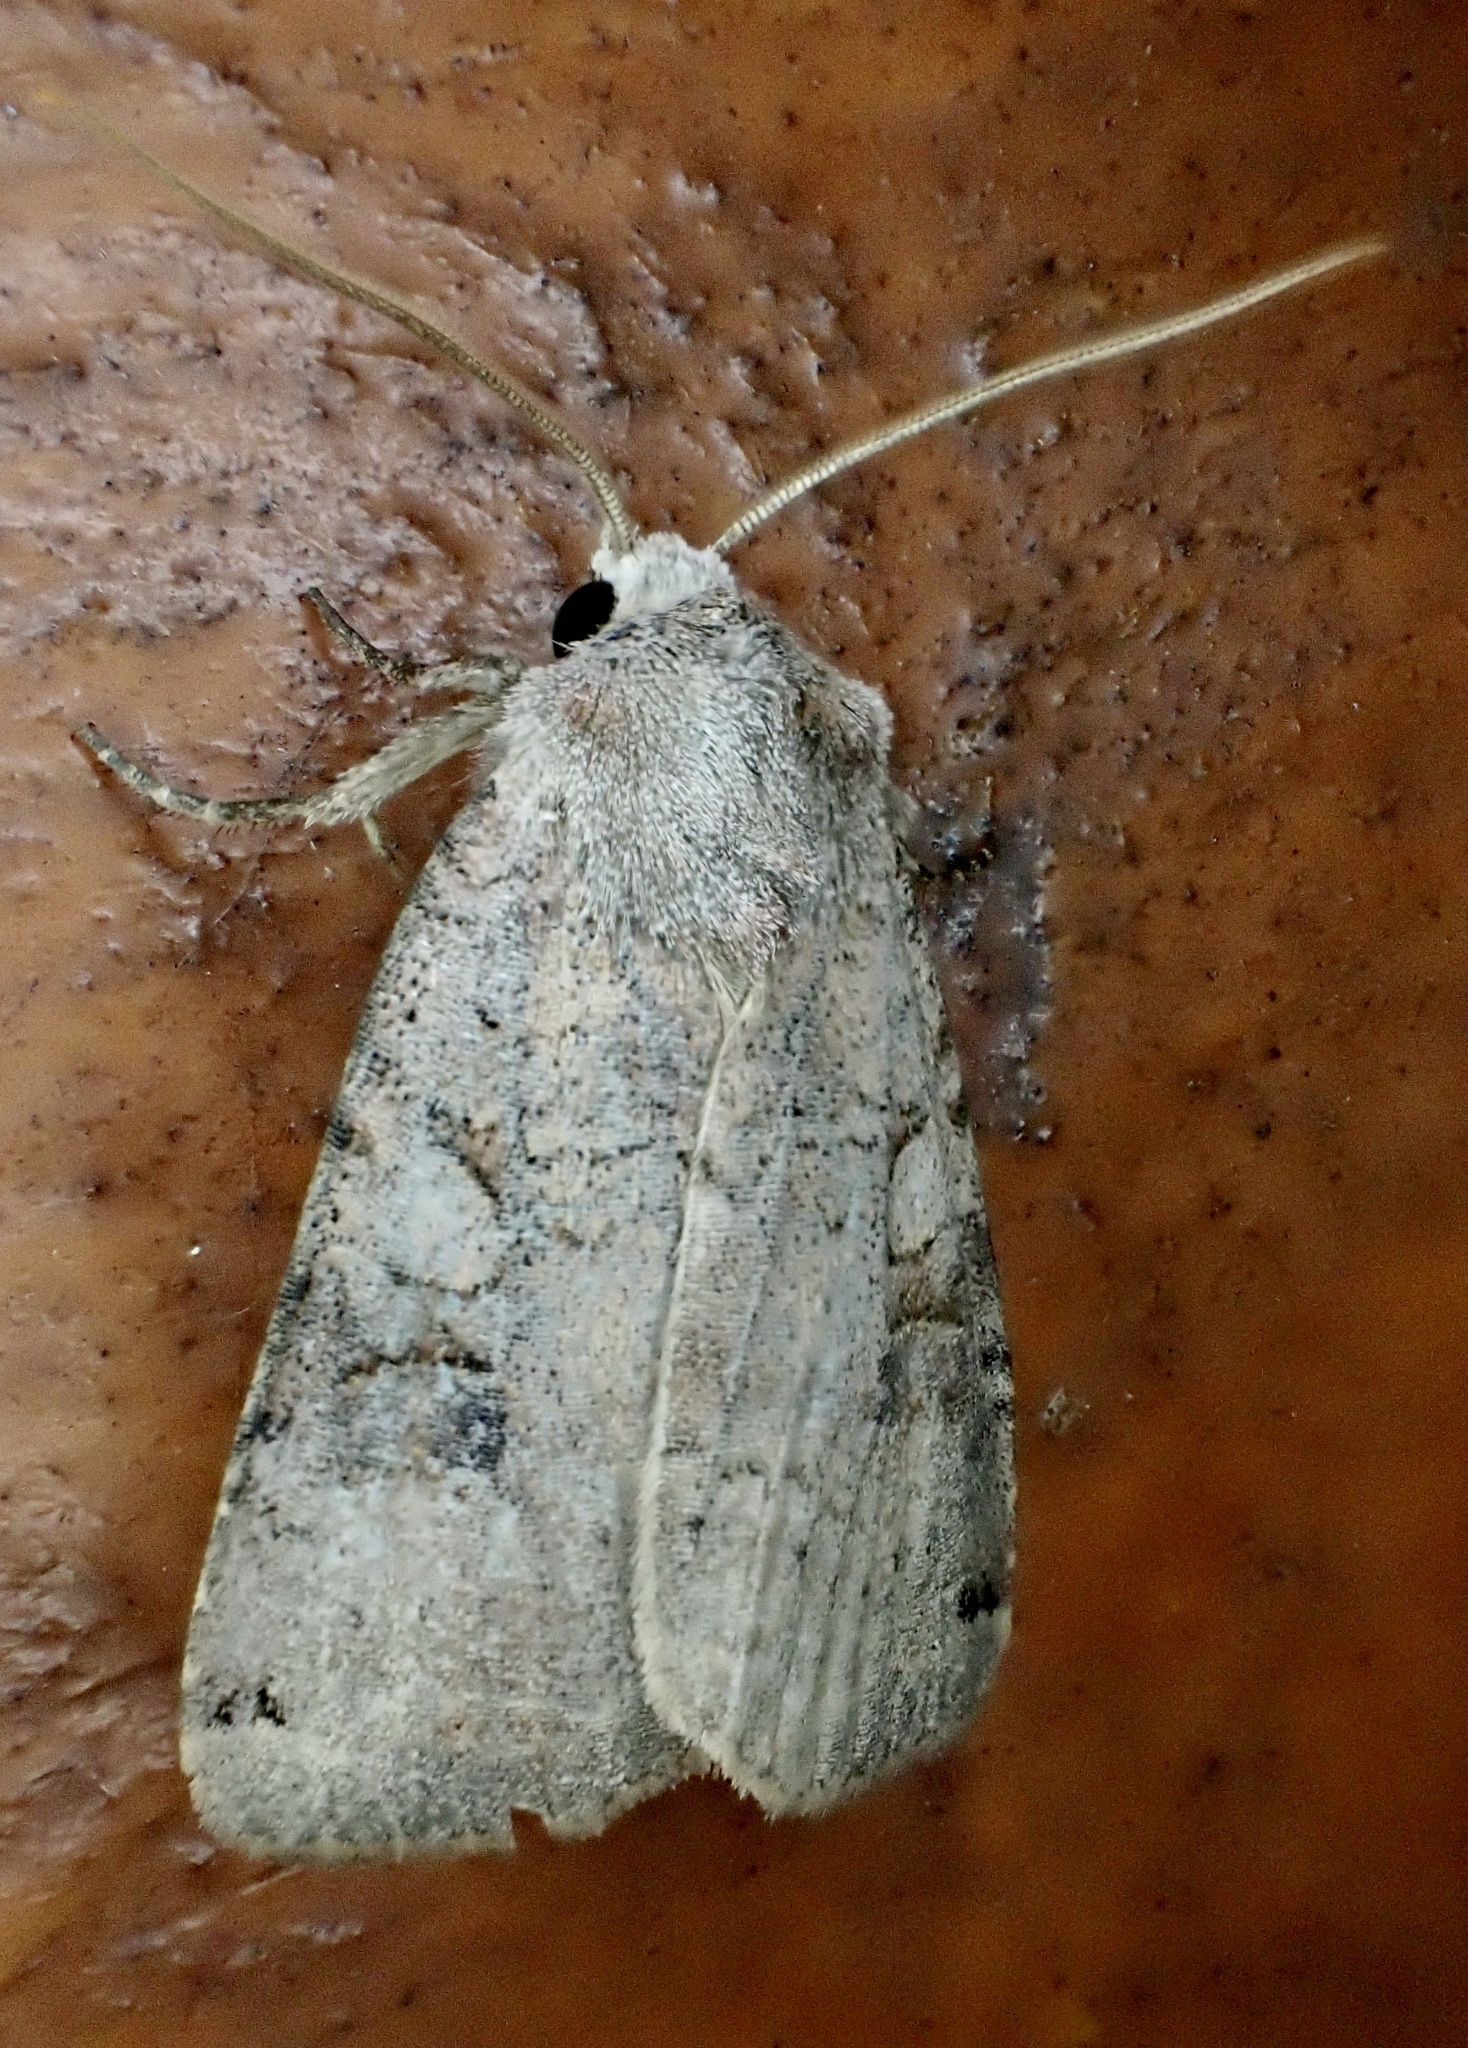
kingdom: Animalia
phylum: Arthropoda
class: Insecta
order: Lepidoptera
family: Noctuidae
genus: Xestia
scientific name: Xestia smithii
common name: Smith's dart
